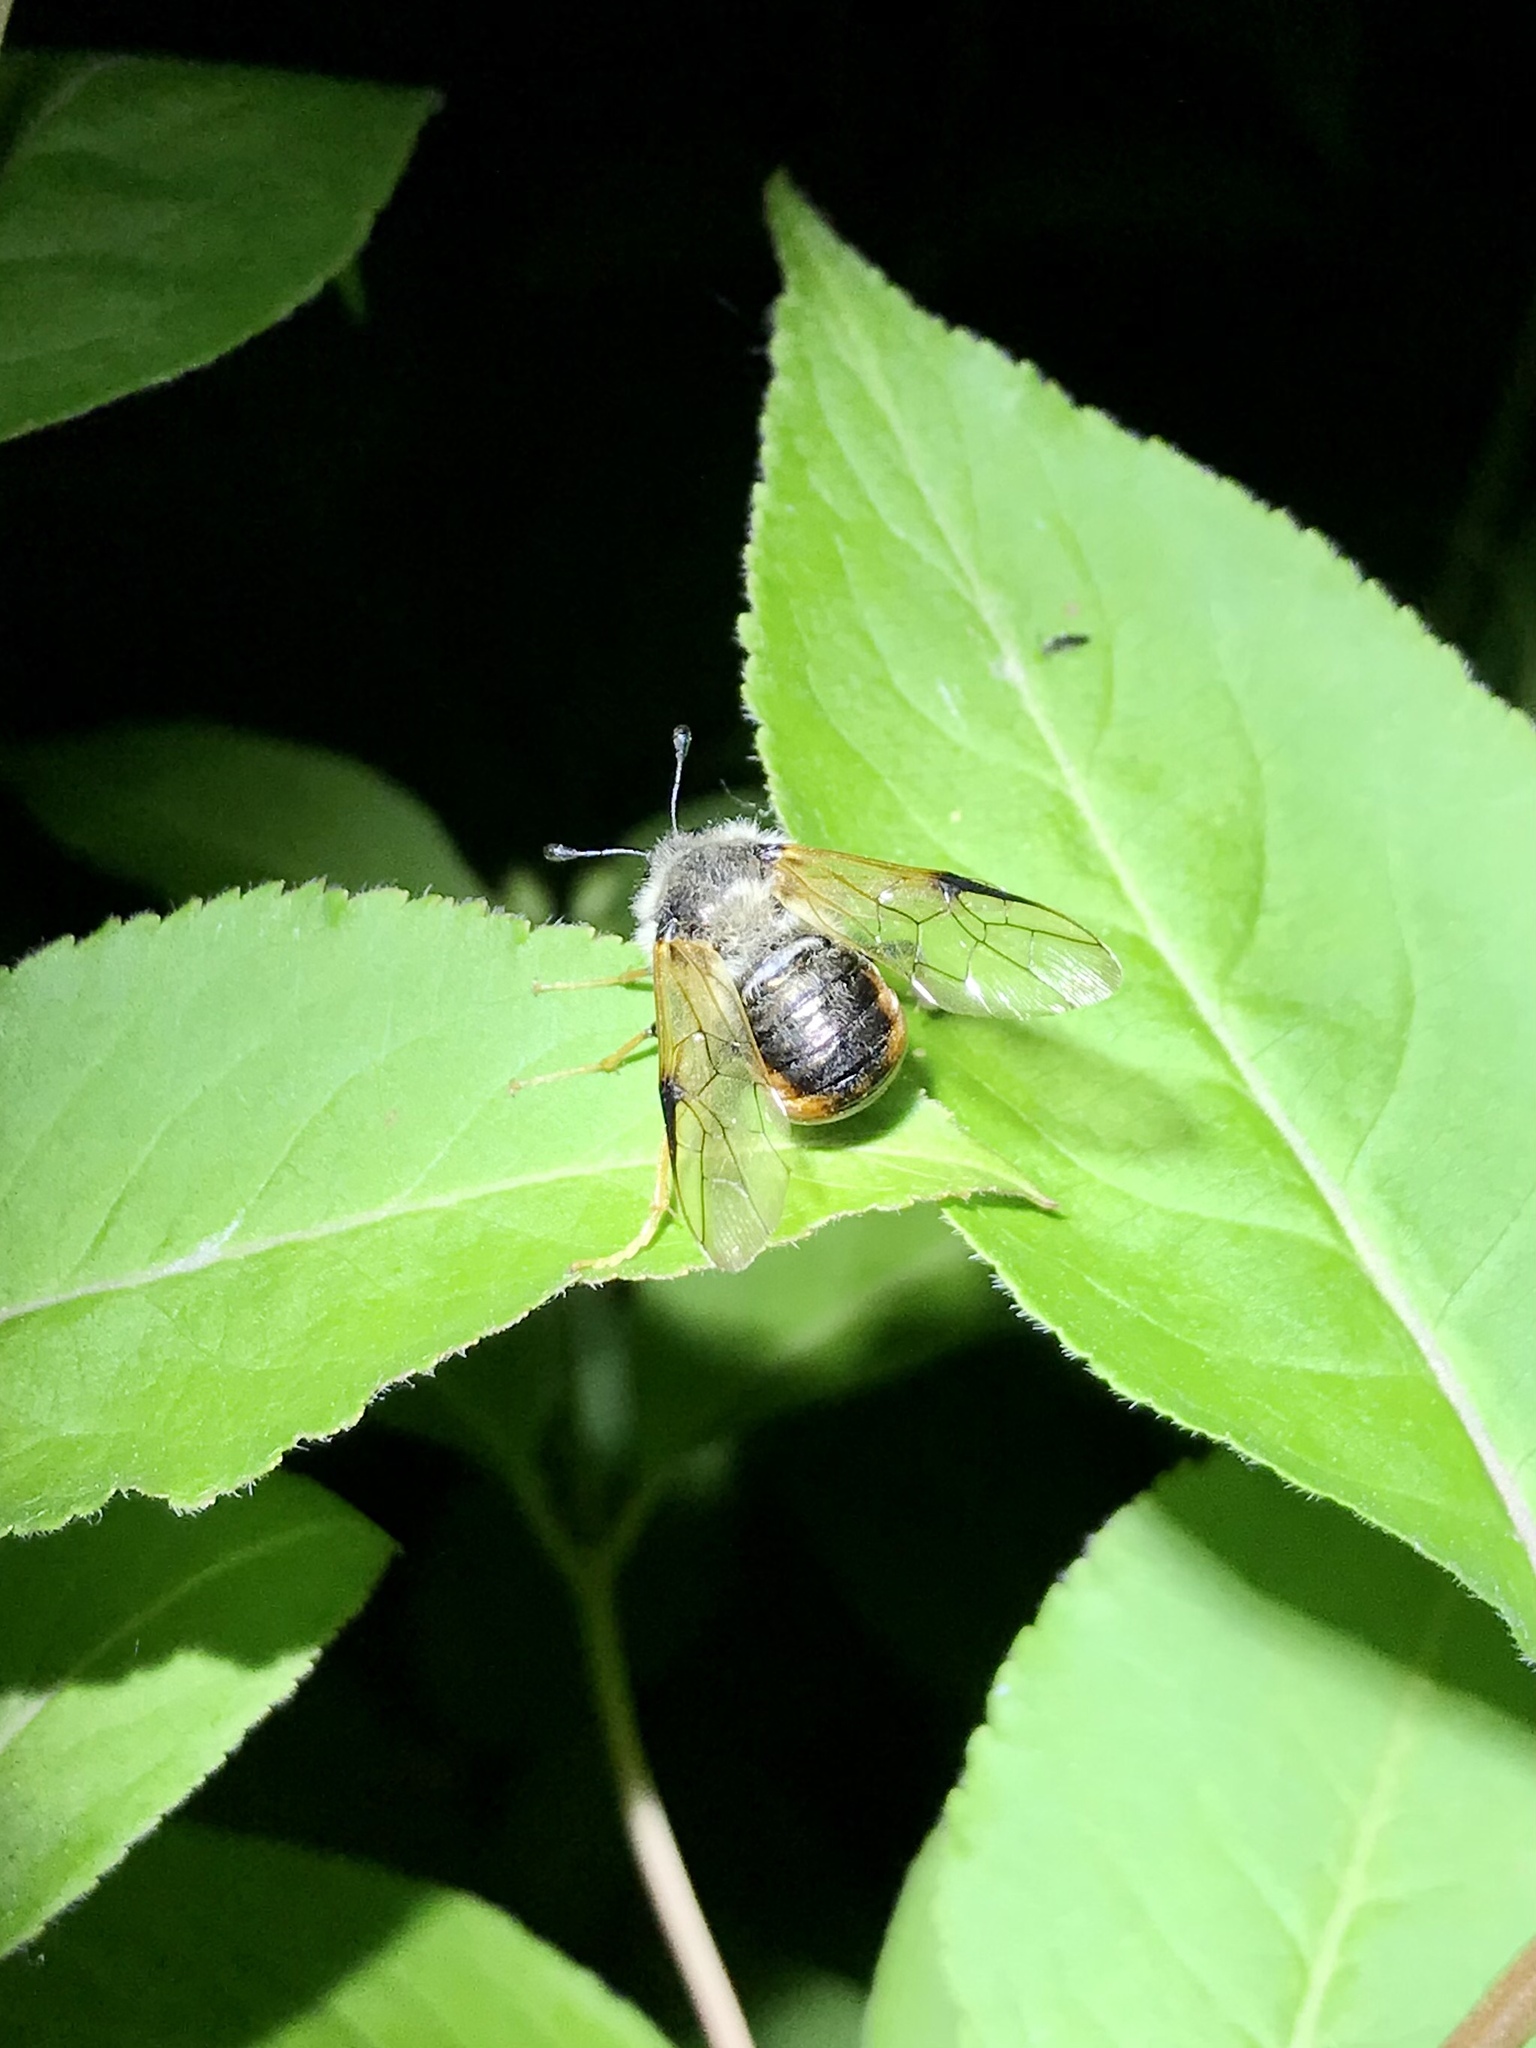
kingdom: Animalia
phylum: Arthropoda
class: Insecta
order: Hymenoptera
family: Cimbicidae
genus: Trichiosoma
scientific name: Trichiosoma triangulum
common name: Giant birch sawfly
